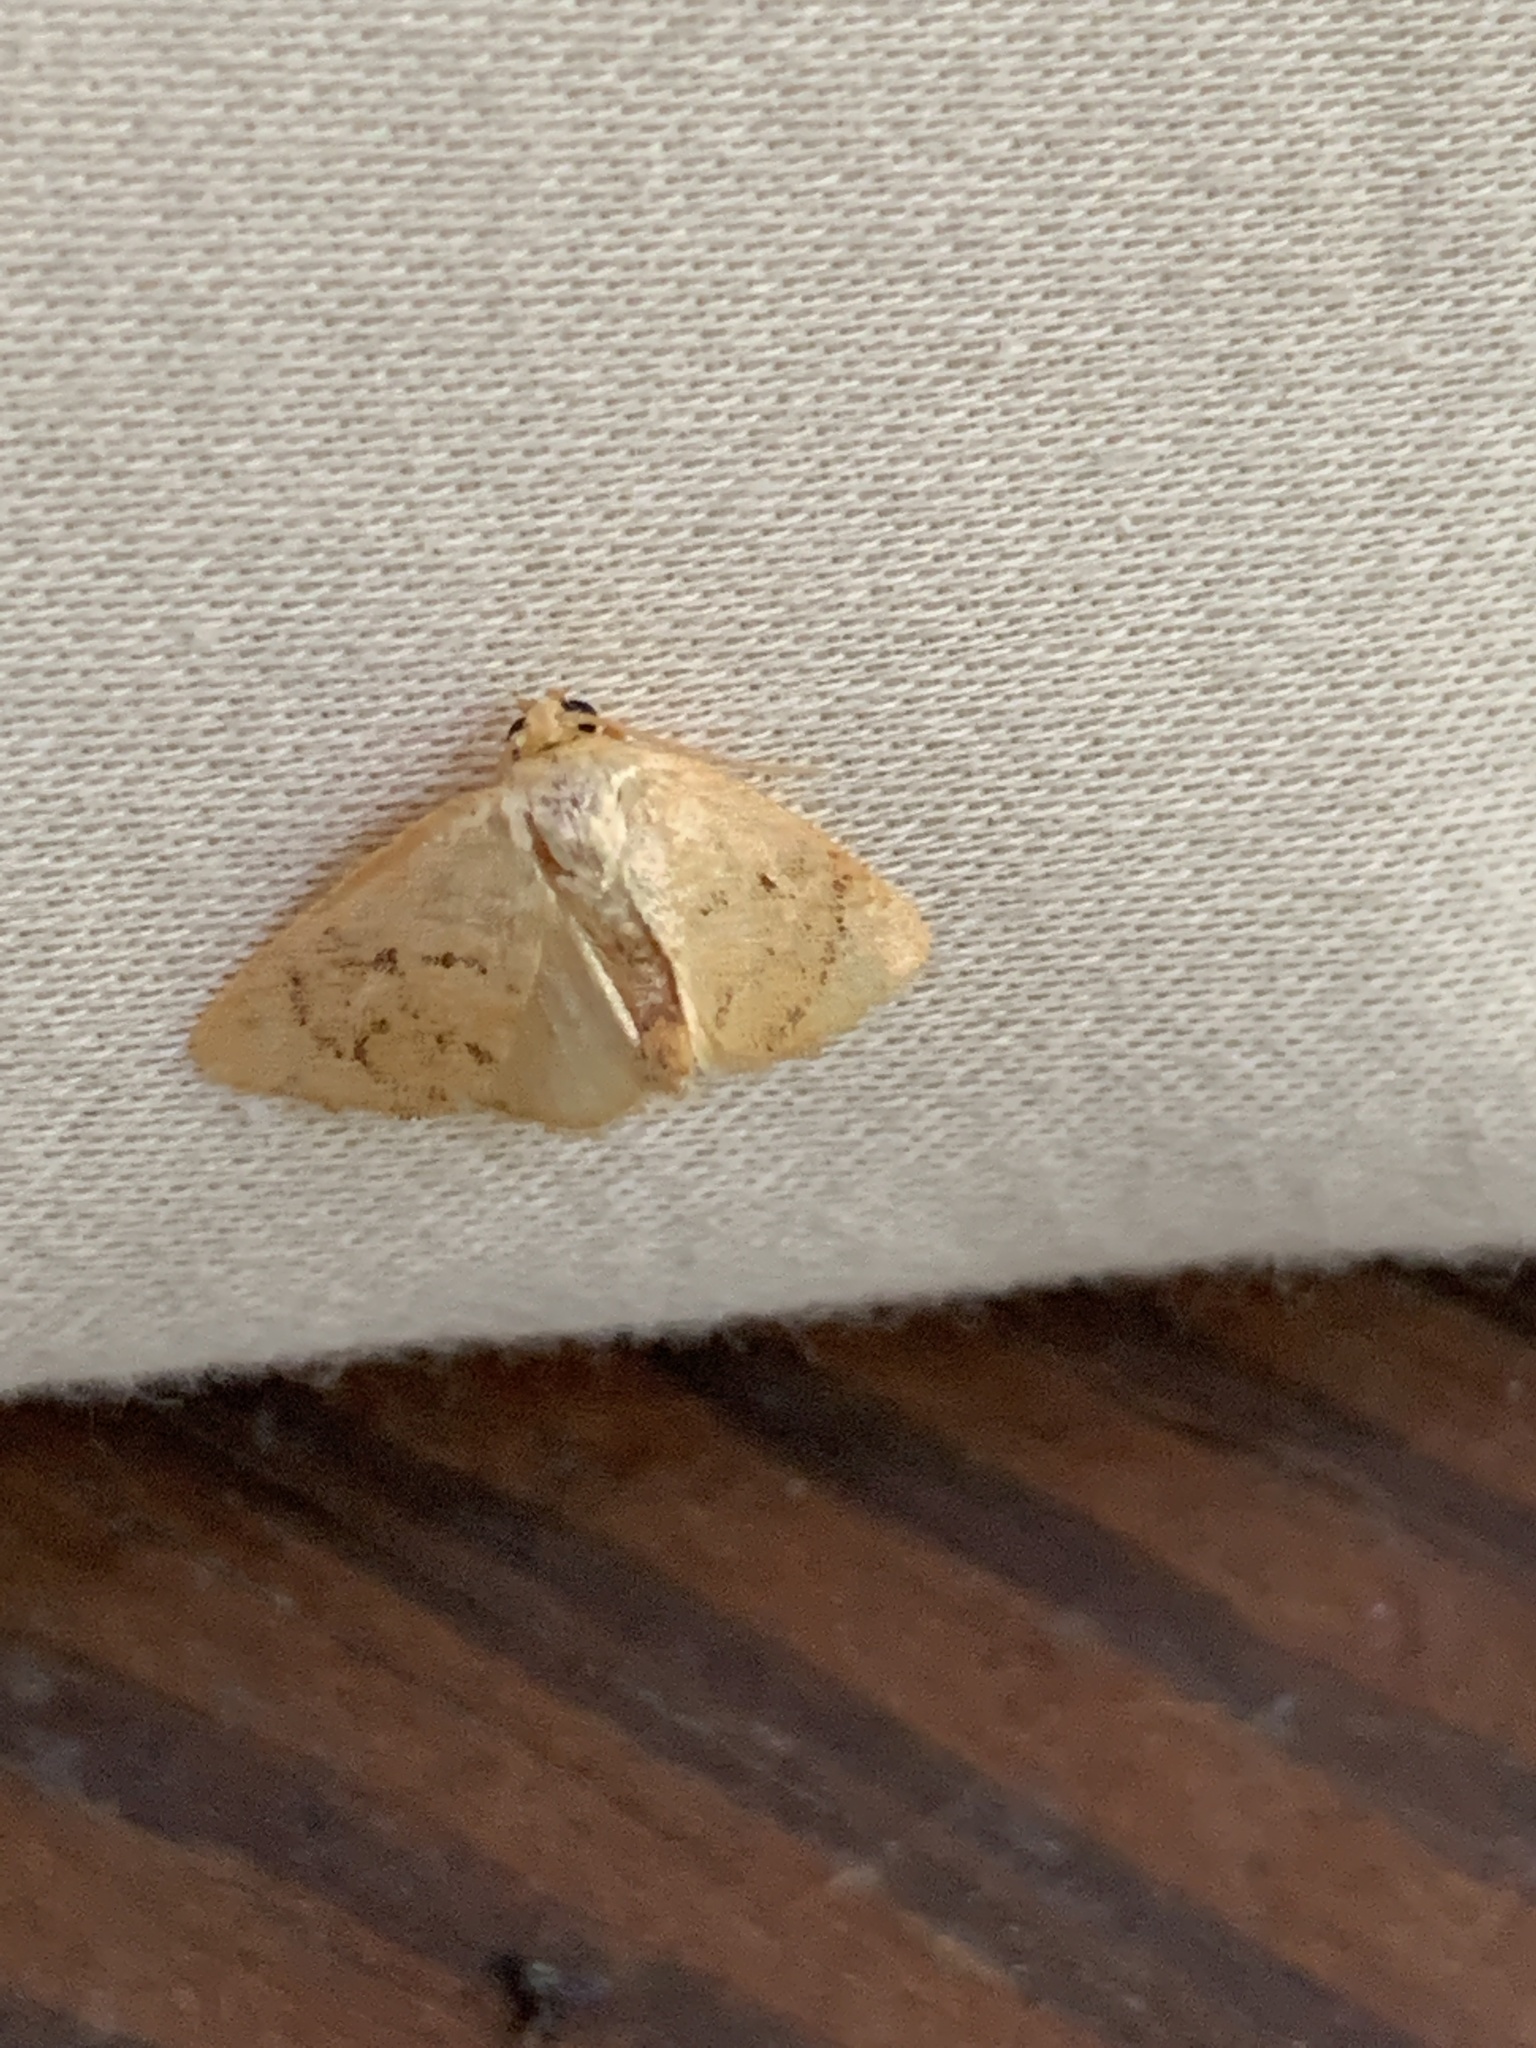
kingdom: Animalia
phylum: Arthropoda
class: Insecta
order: Lepidoptera
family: Limacodidae
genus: Tortricidia
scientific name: Tortricidia
